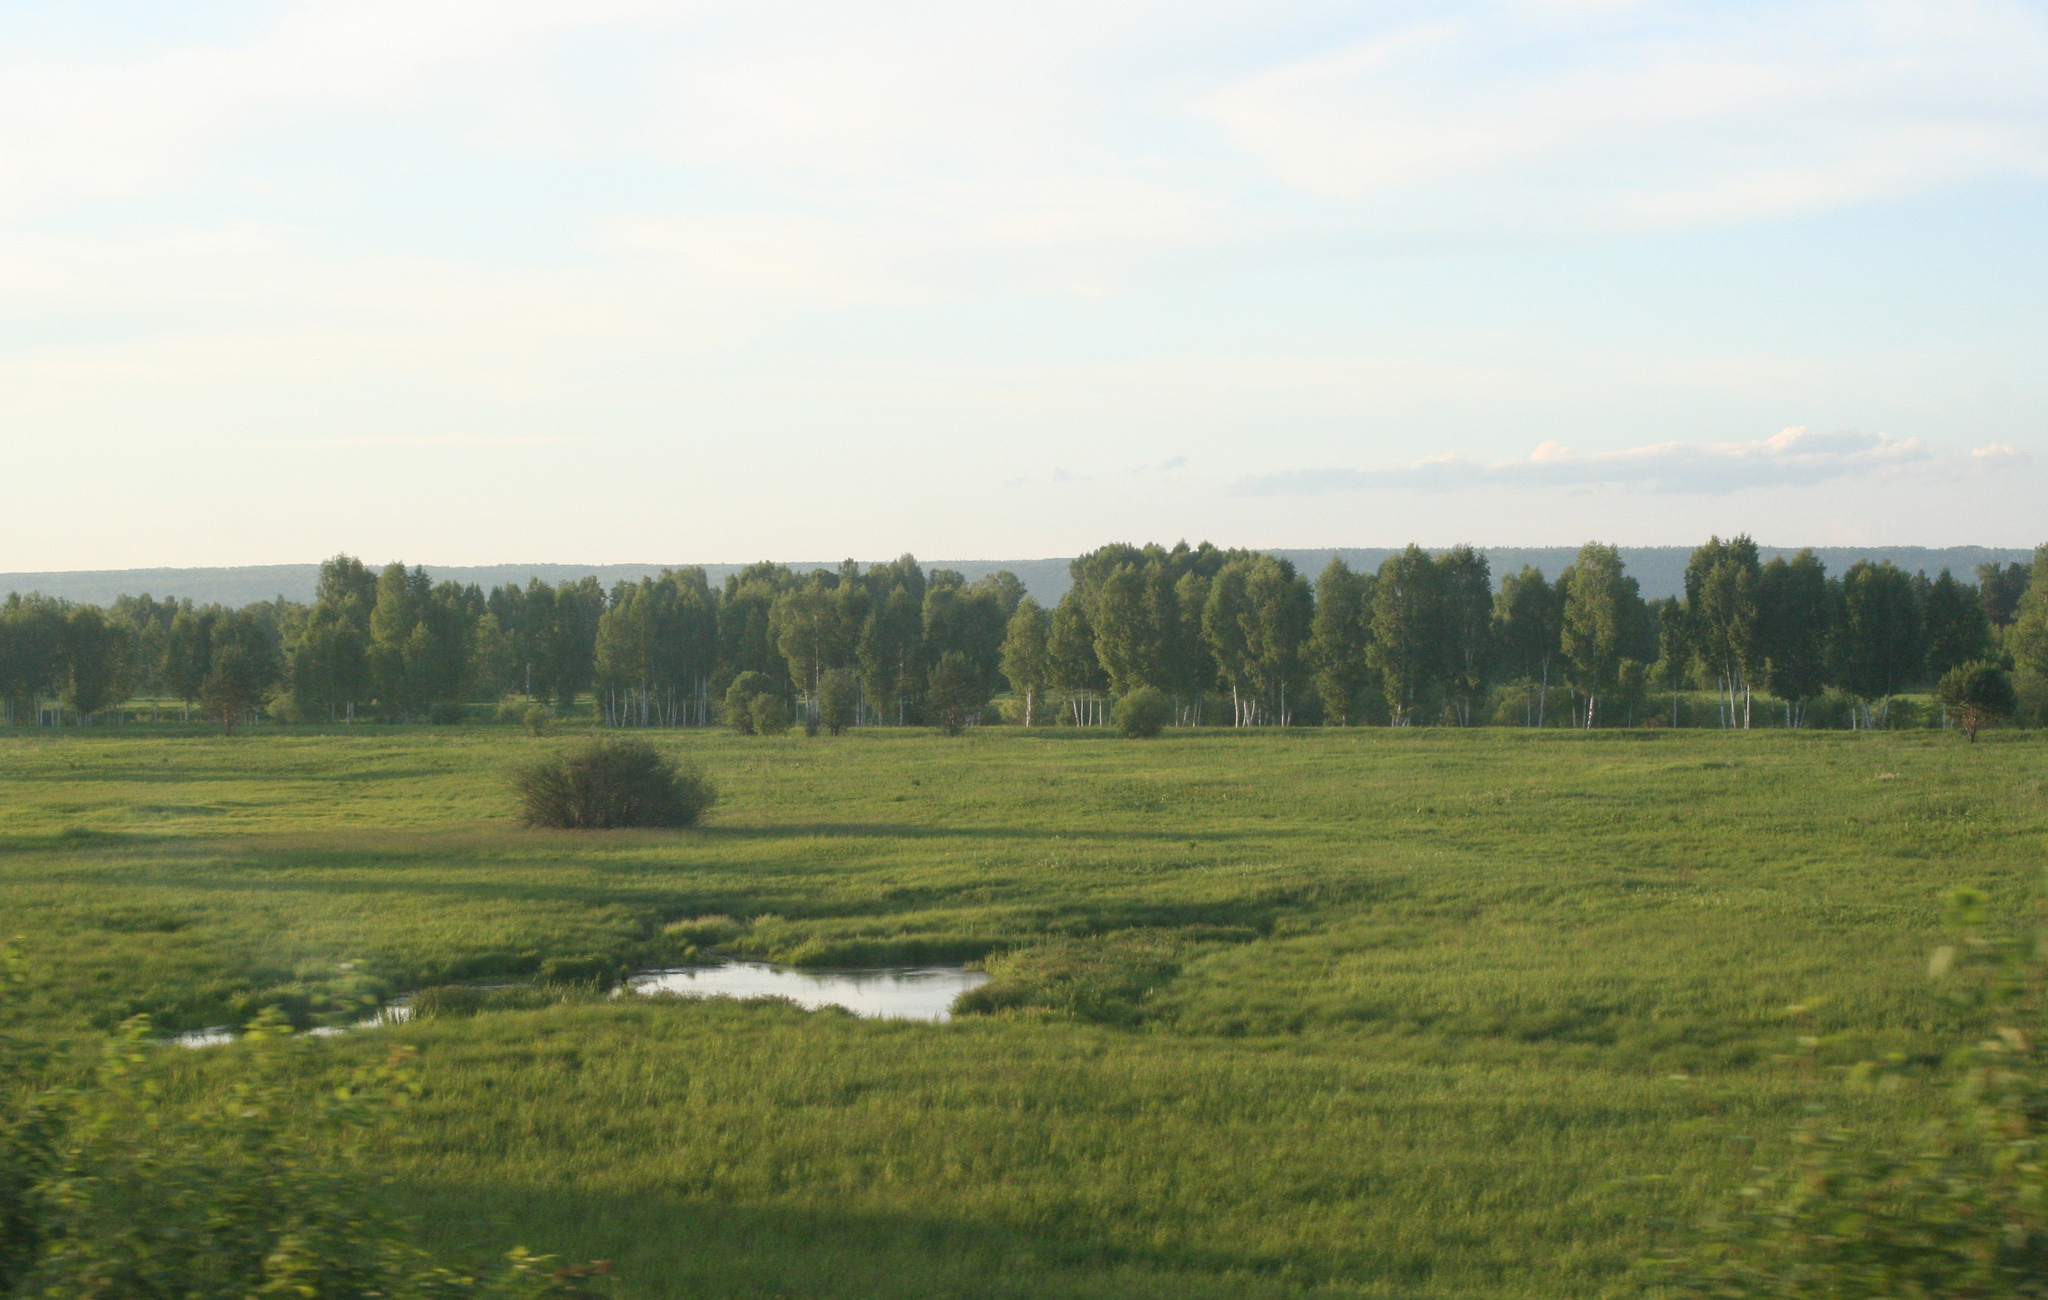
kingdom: Plantae
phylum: Tracheophyta
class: Magnoliopsida
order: Fagales
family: Betulaceae
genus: Betula
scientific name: Betula pendula
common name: Silver birch
